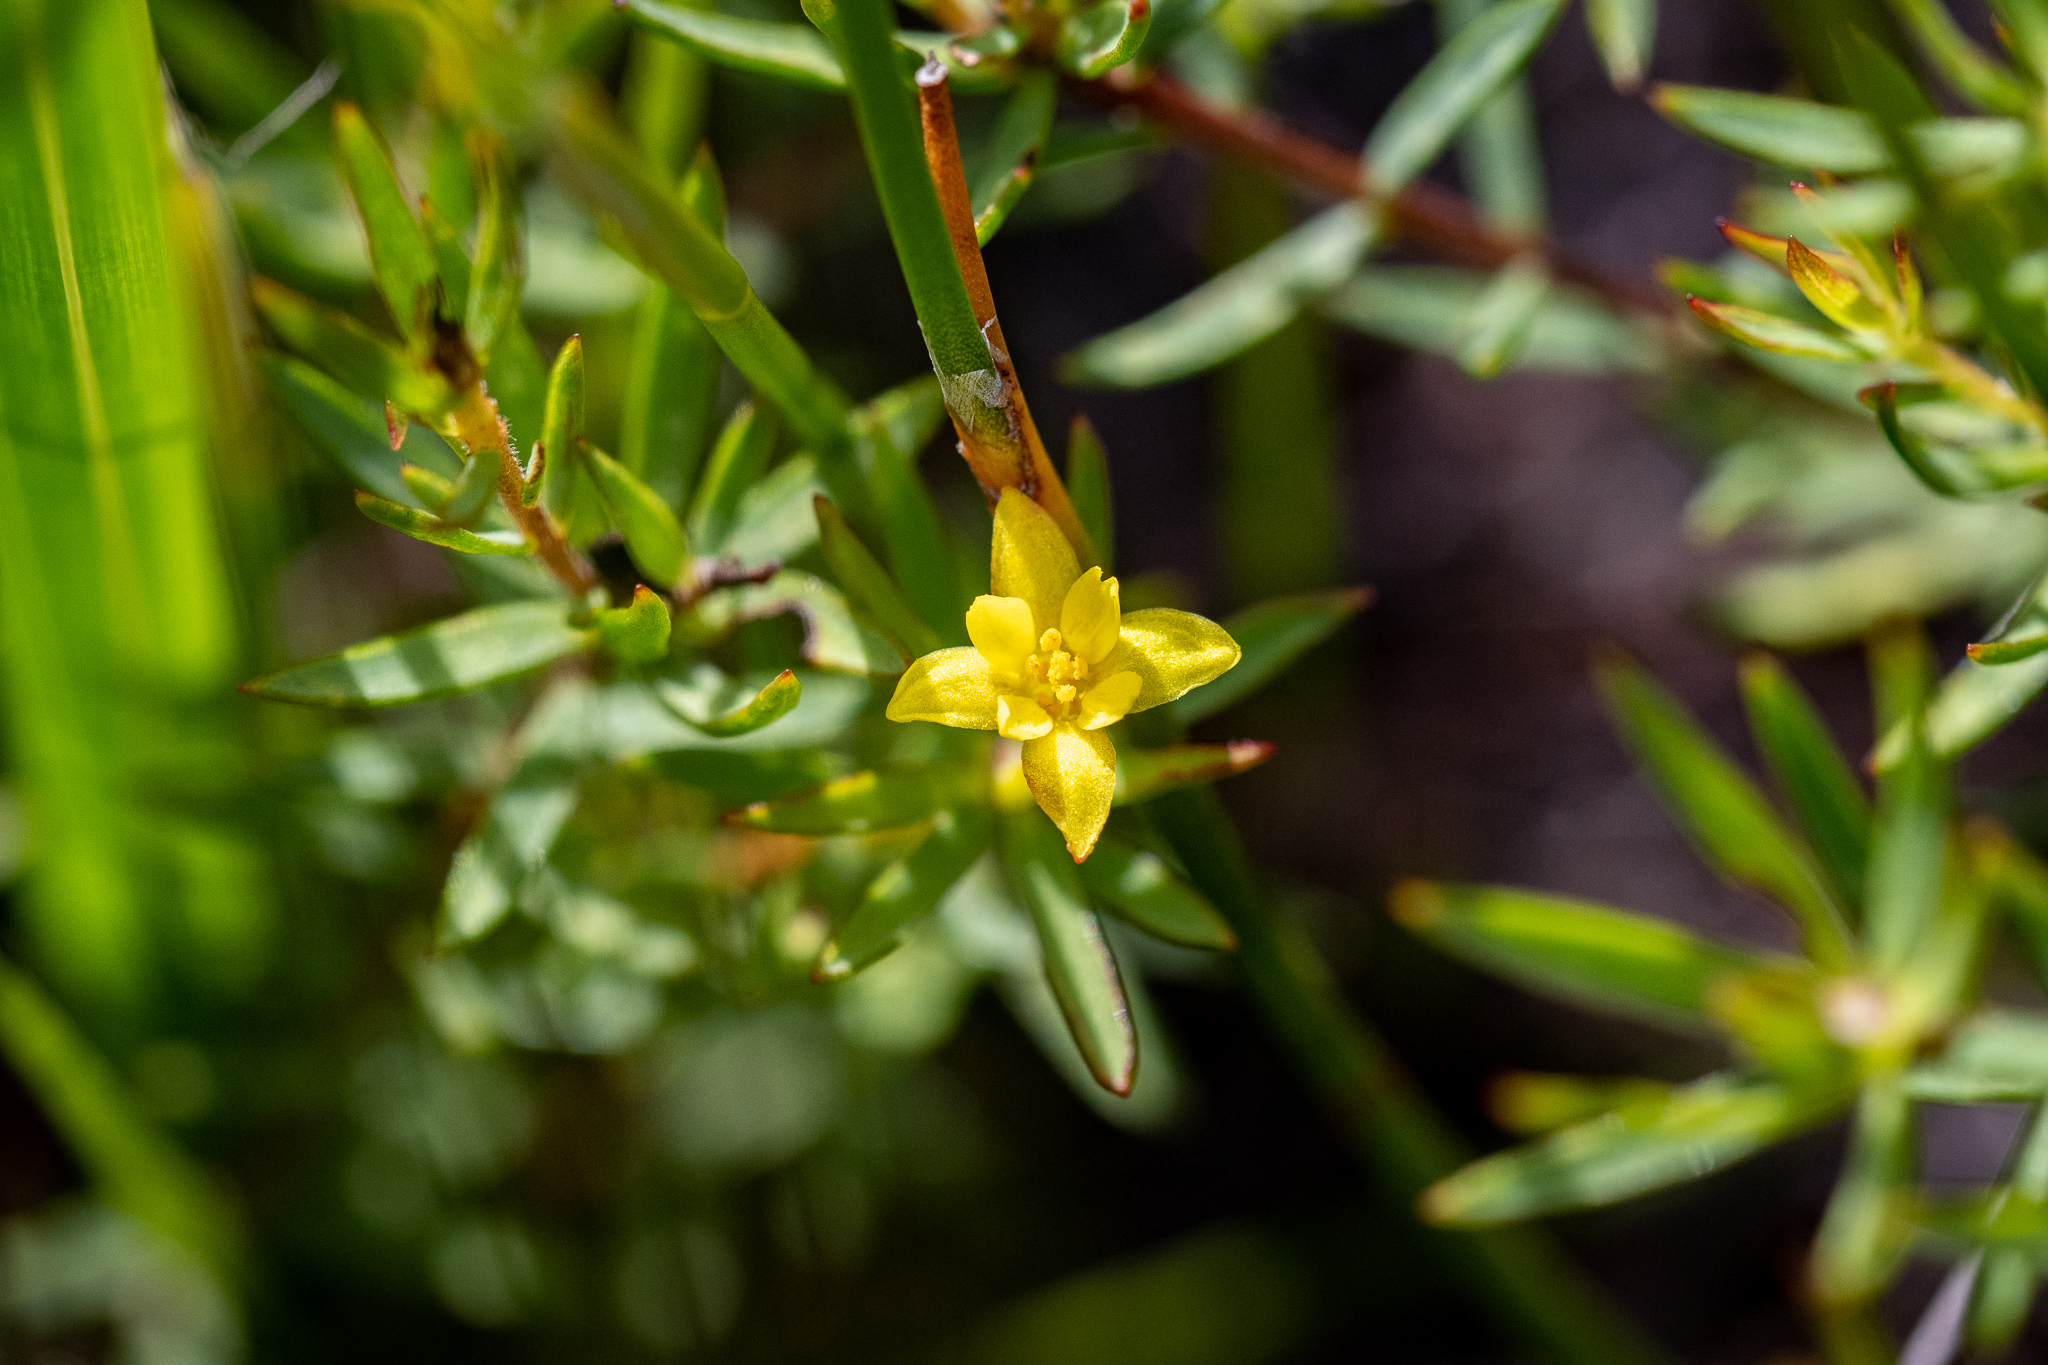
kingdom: Plantae
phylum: Tracheophyta
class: Magnoliopsida
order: Malvales
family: Thymelaeaceae
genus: Gnidia
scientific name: Gnidia juniperifolia
